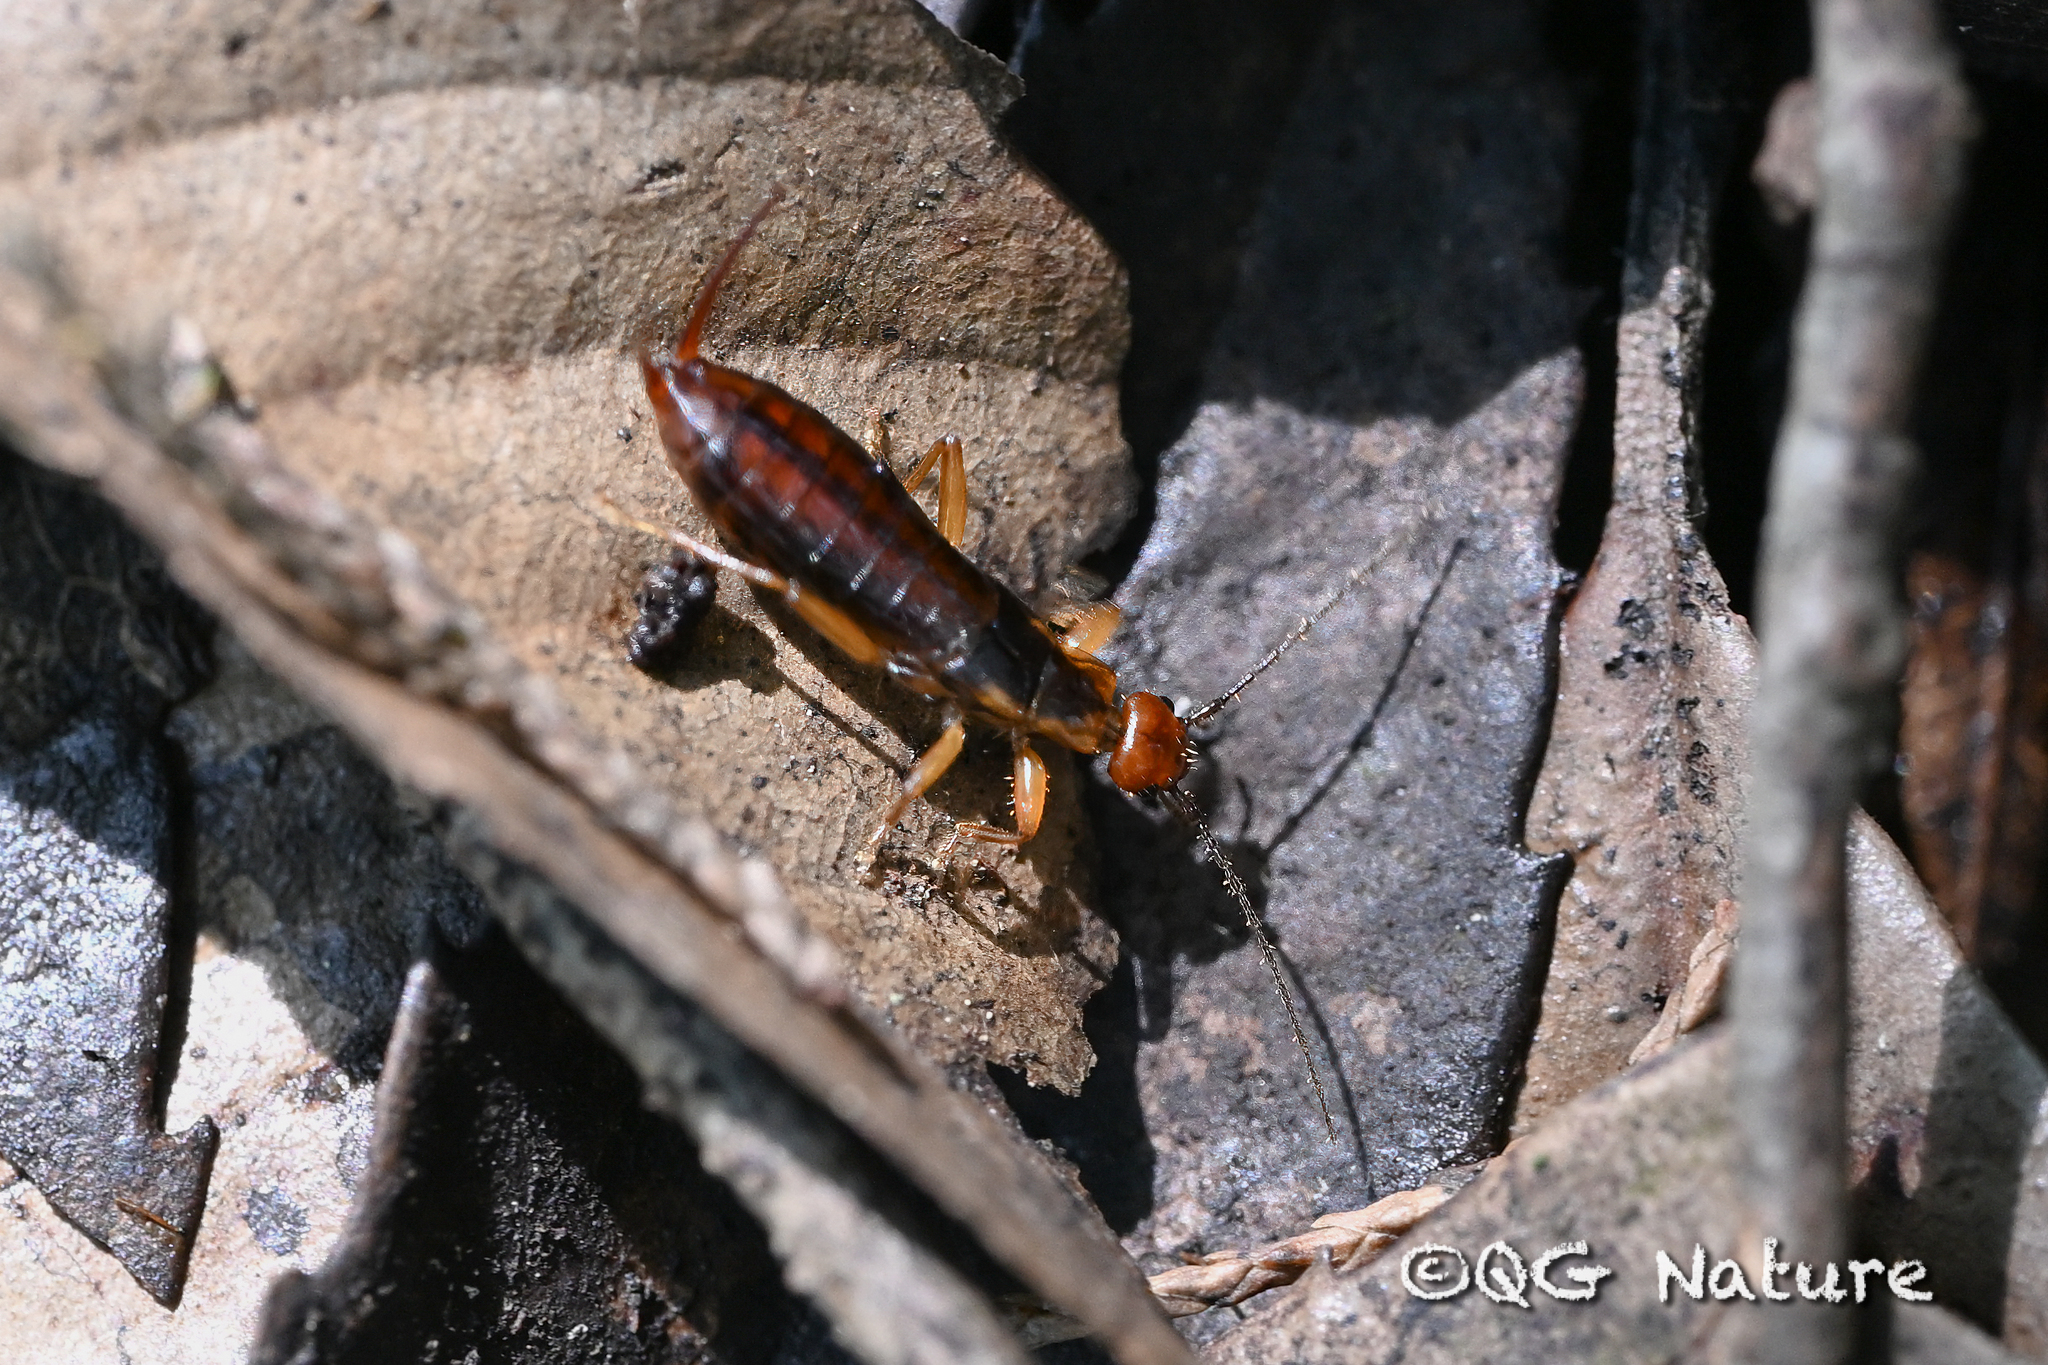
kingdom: Animalia
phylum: Arthropoda
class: Insecta
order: Dermaptera
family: Forficulidae
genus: Liparura
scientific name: Liparura punctata
